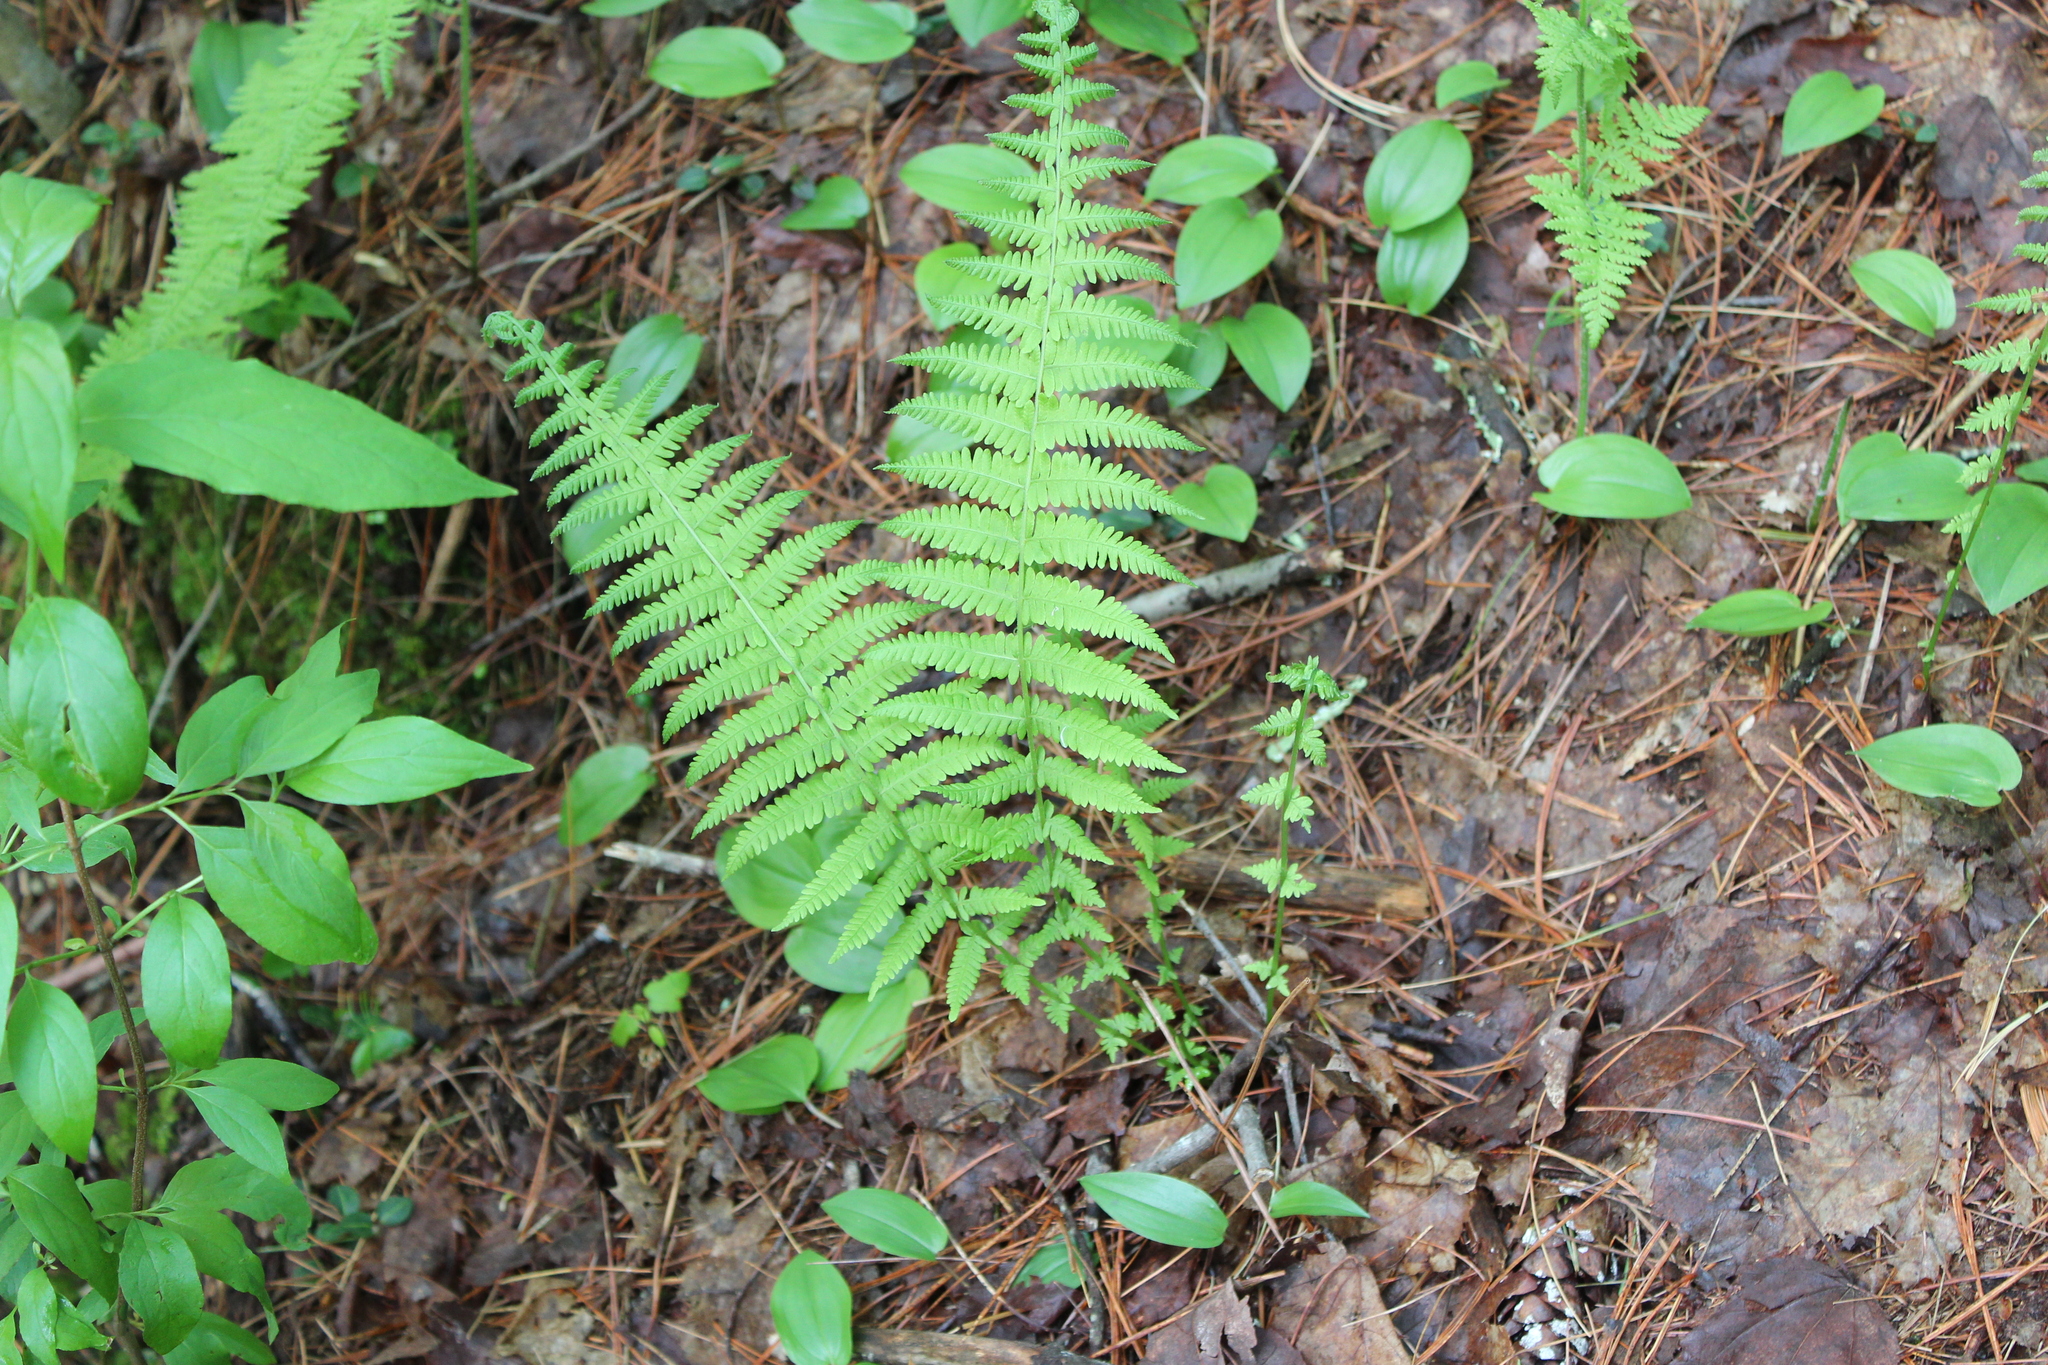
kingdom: Plantae
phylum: Tracheophyta
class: Polypodiopsida
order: Polypodiales
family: Thelypteridaceae
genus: Amauropelta
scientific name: Amauropelta noveboracensis
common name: New york fern
